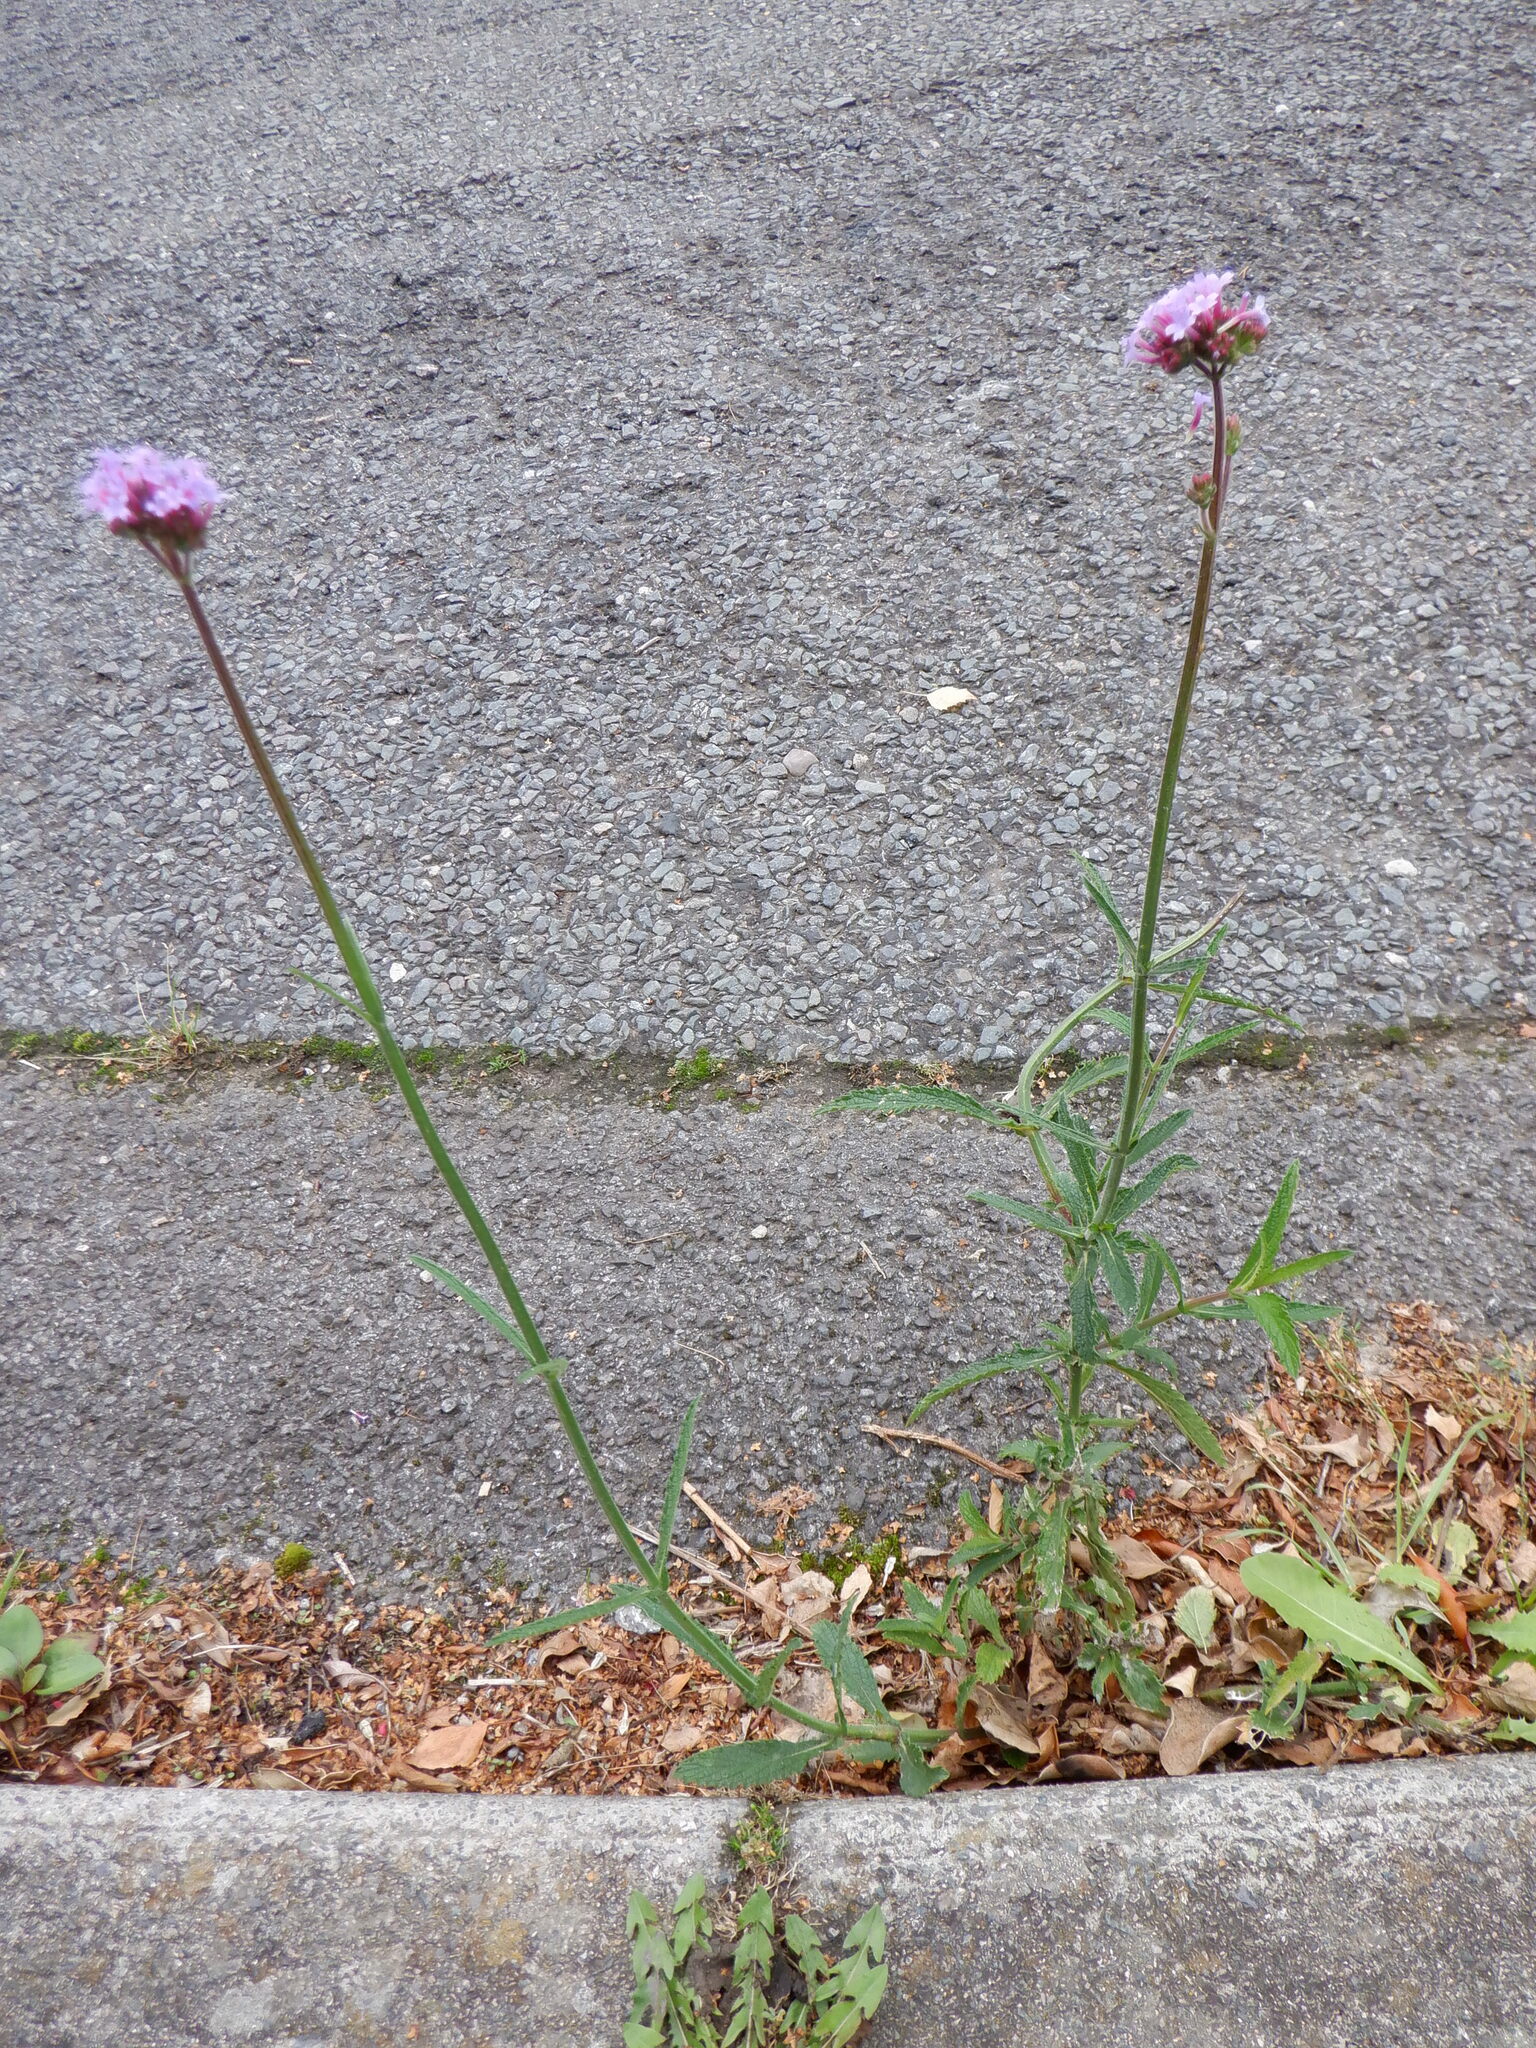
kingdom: Plantae
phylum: Tracheophyta
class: Magnoliopsida
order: Lamiales
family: Verbenaceae
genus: Verbena
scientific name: Verbena bonariensis
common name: Purpletop vervain
